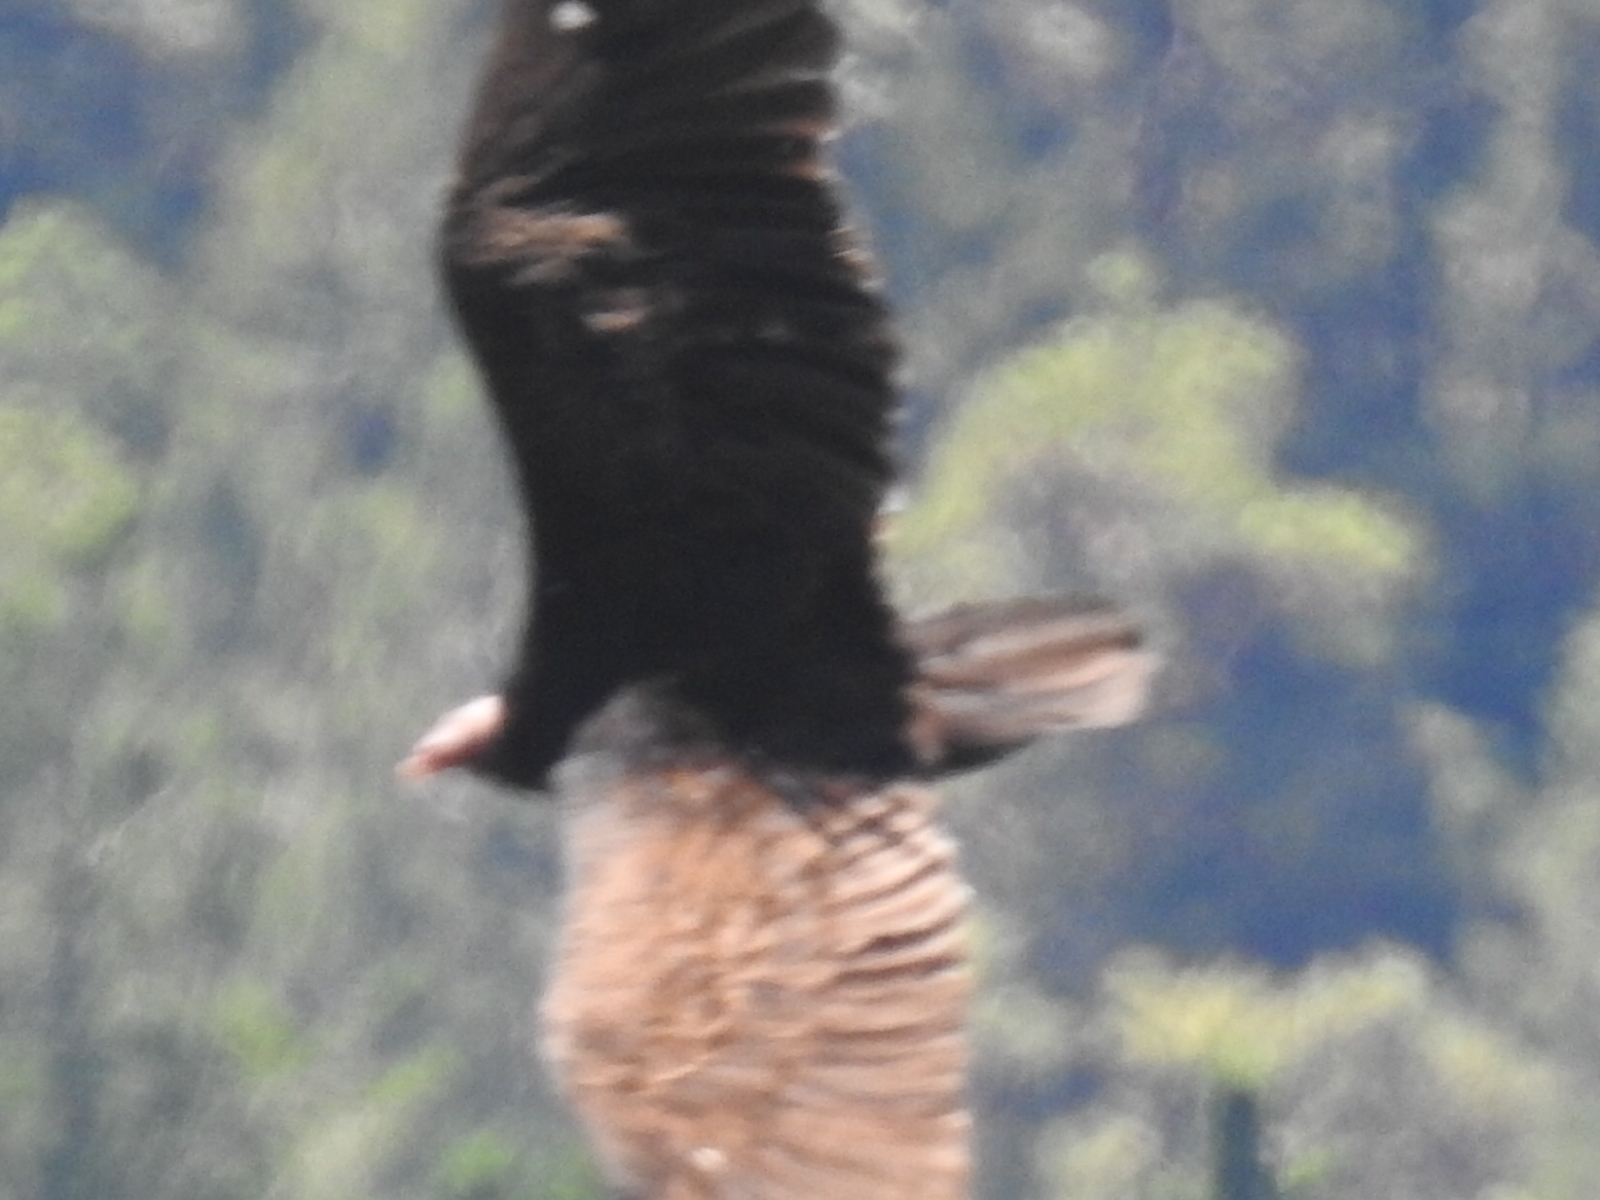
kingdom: Animalia
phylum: Chordata
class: Aves
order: Accipitriformes
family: Cathartidae
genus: Cathartes
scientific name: Cathartes aura
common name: Turkey vulture
